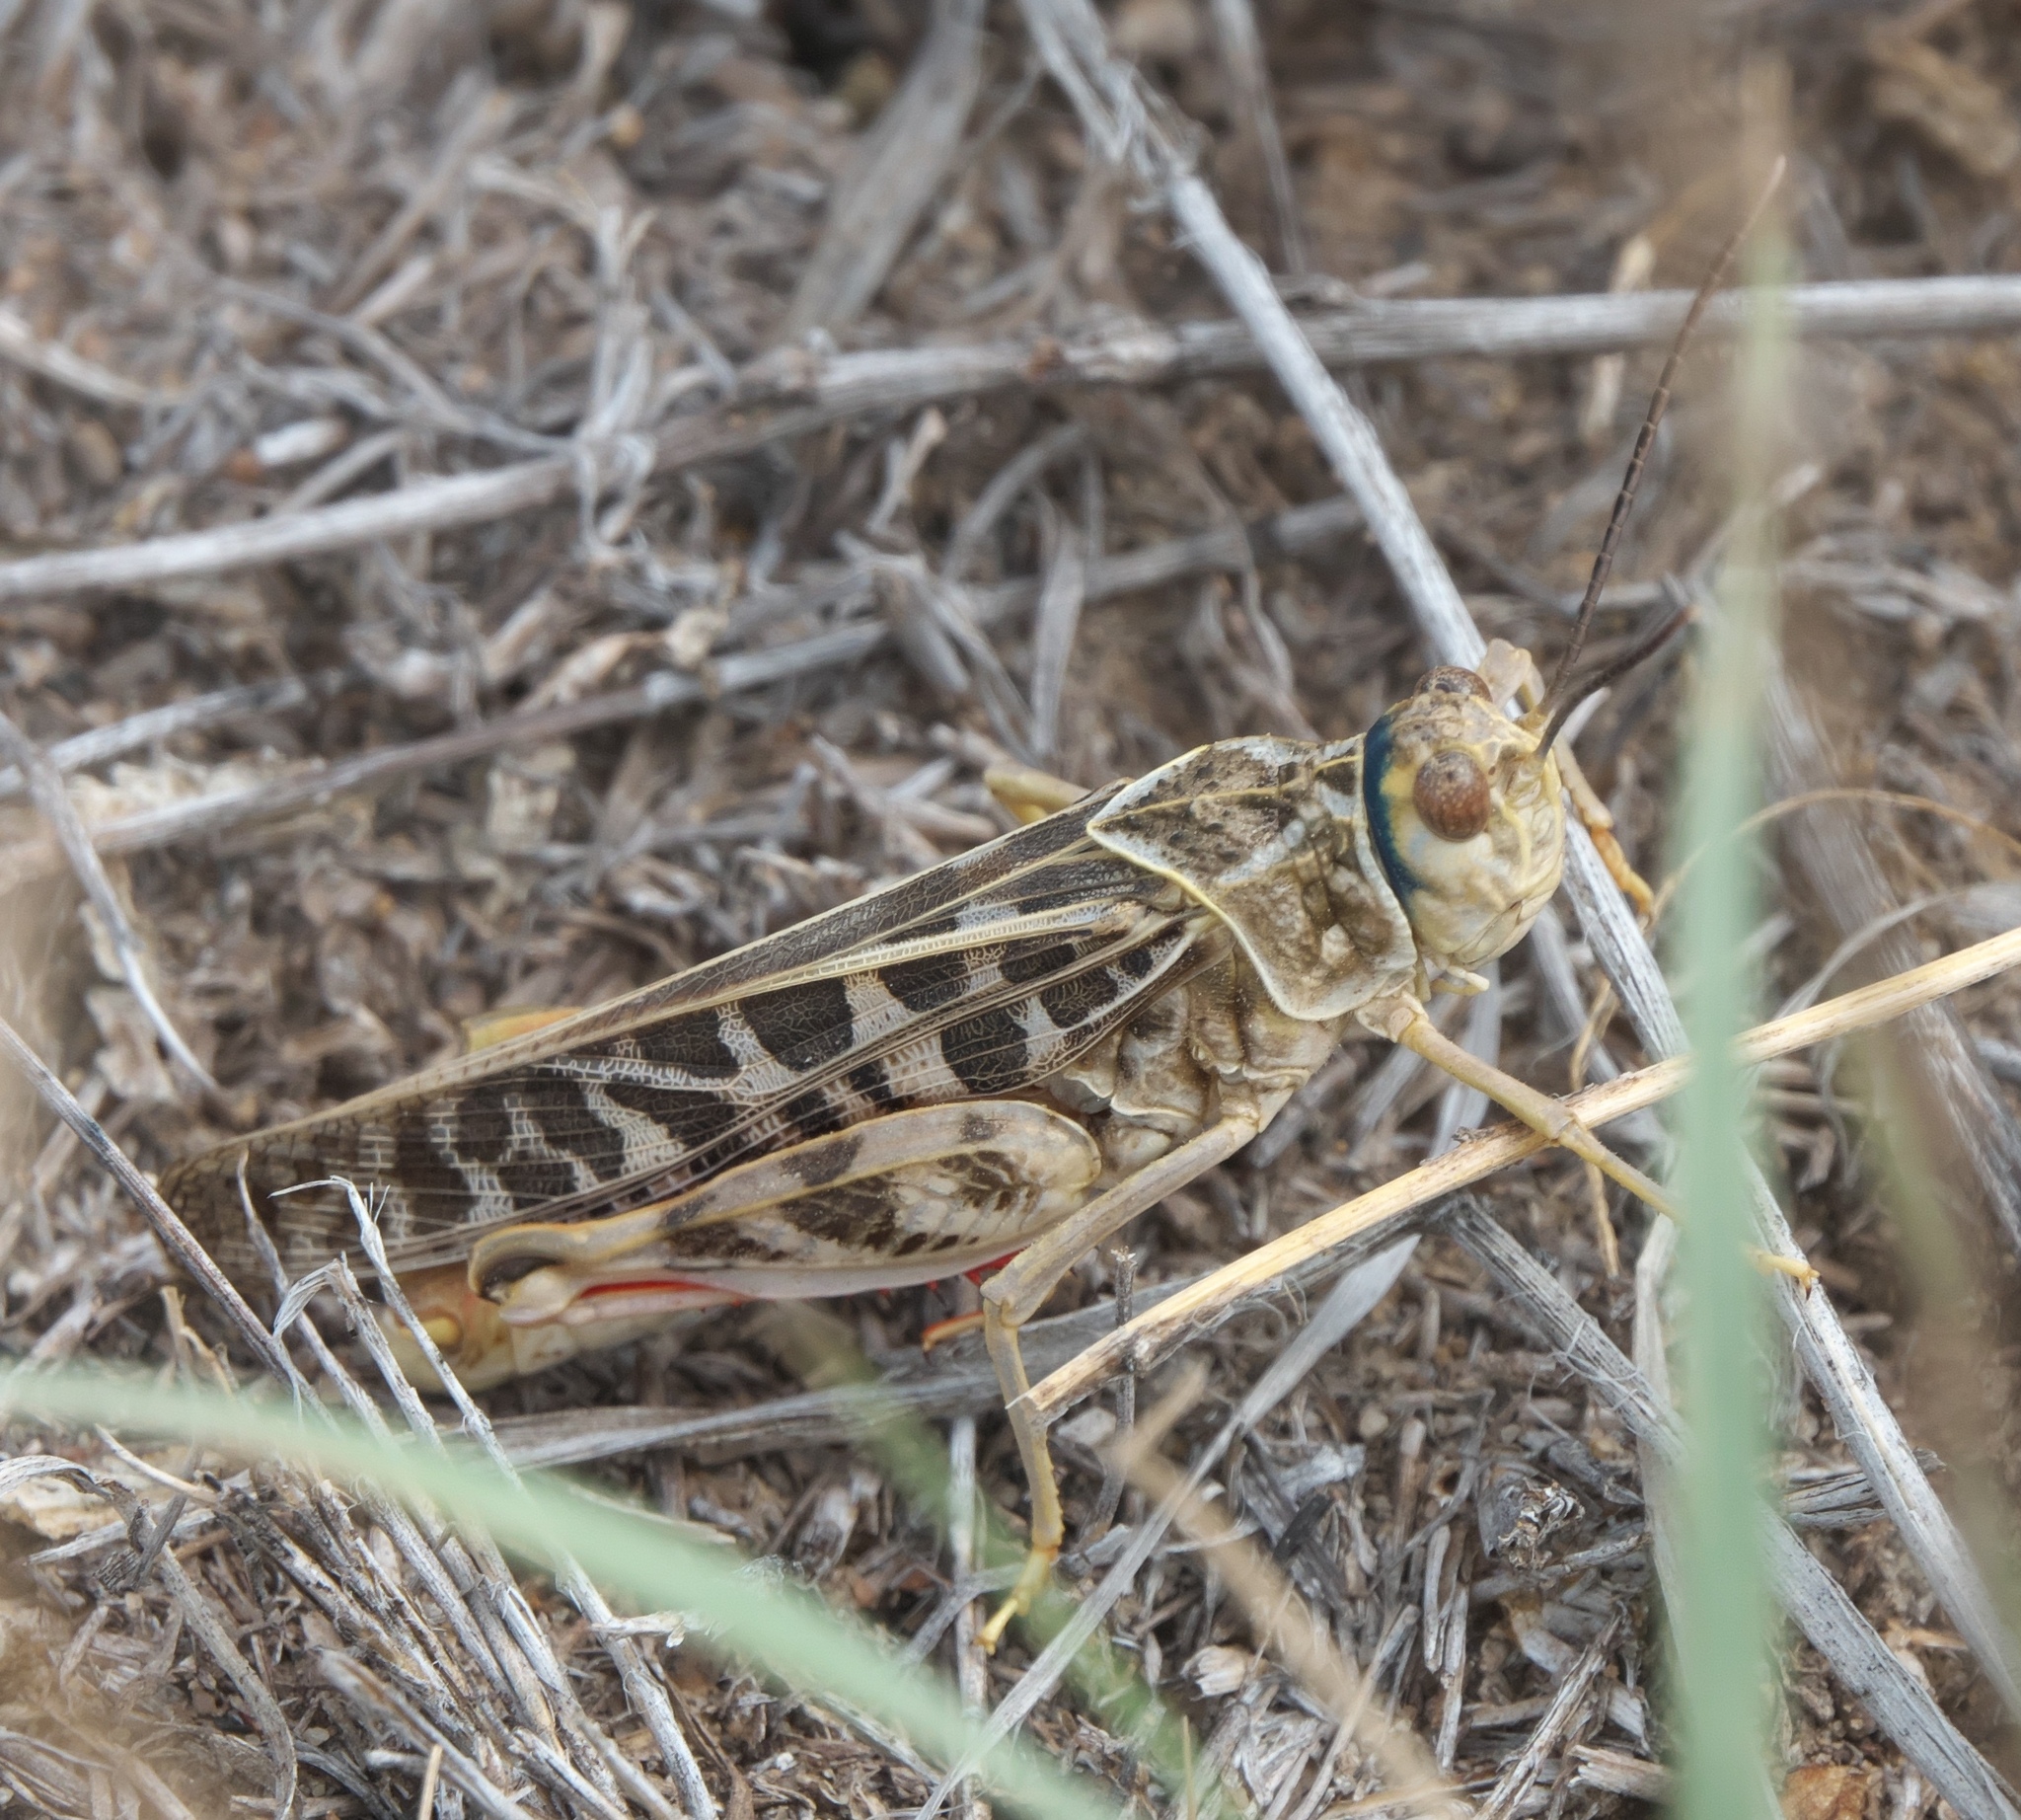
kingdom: Animalia
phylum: Arthropoda
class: Insecta
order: Orthoptera
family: Acrididae
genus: Xanthippus
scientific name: Xanthippus corallipes
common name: Redshanked grasshopper
